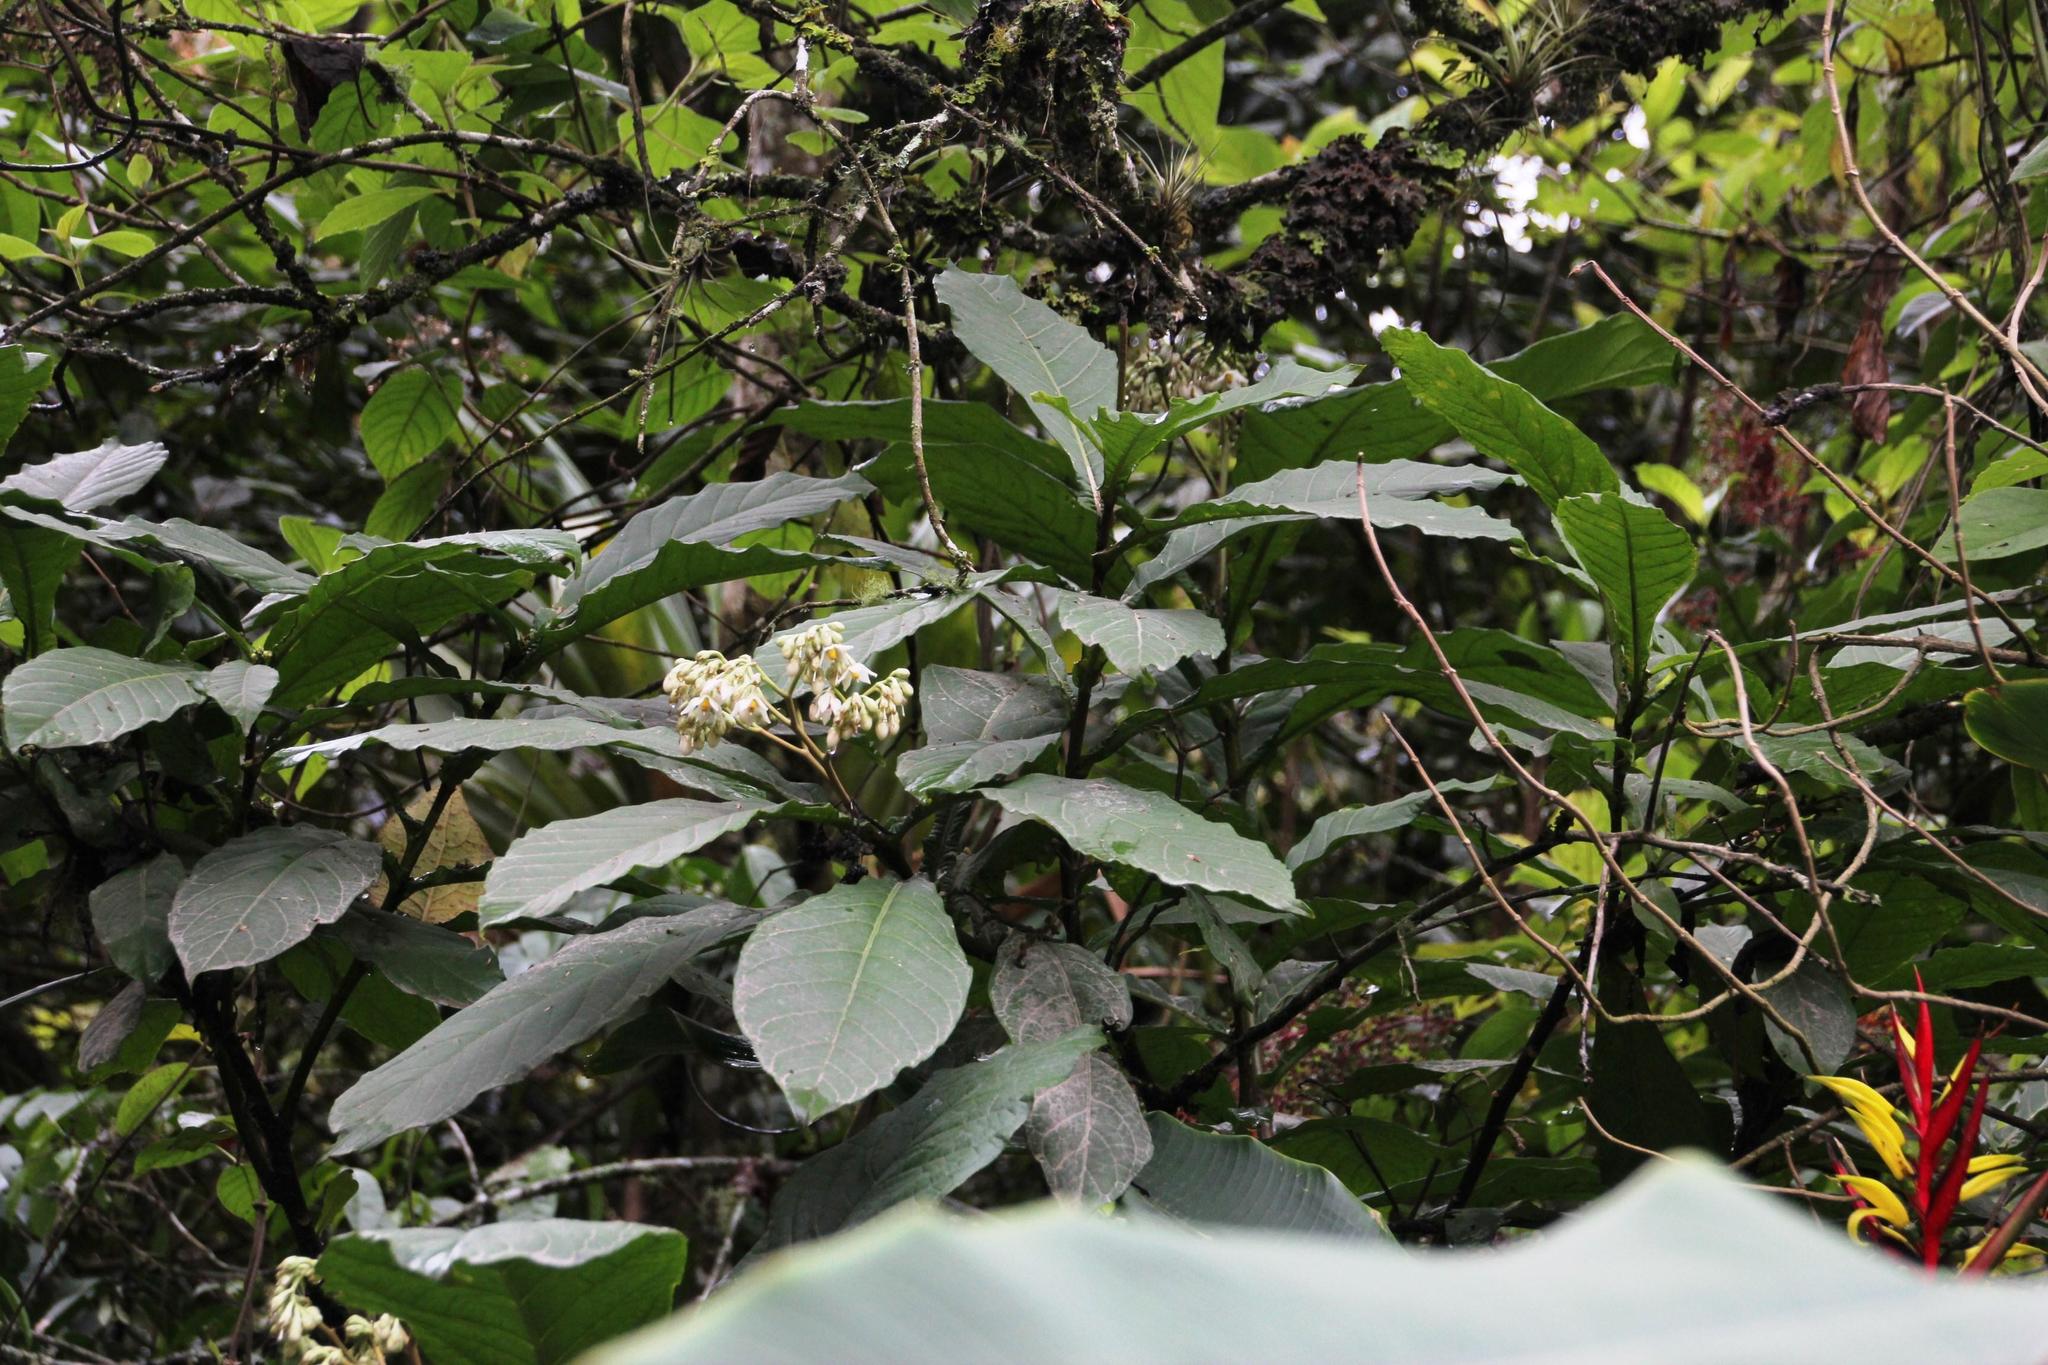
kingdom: Plantae
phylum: Tracheophyta
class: Magnoliopsida
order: Solanales
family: Solanaceae
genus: Solanum
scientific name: Solanum sessile
